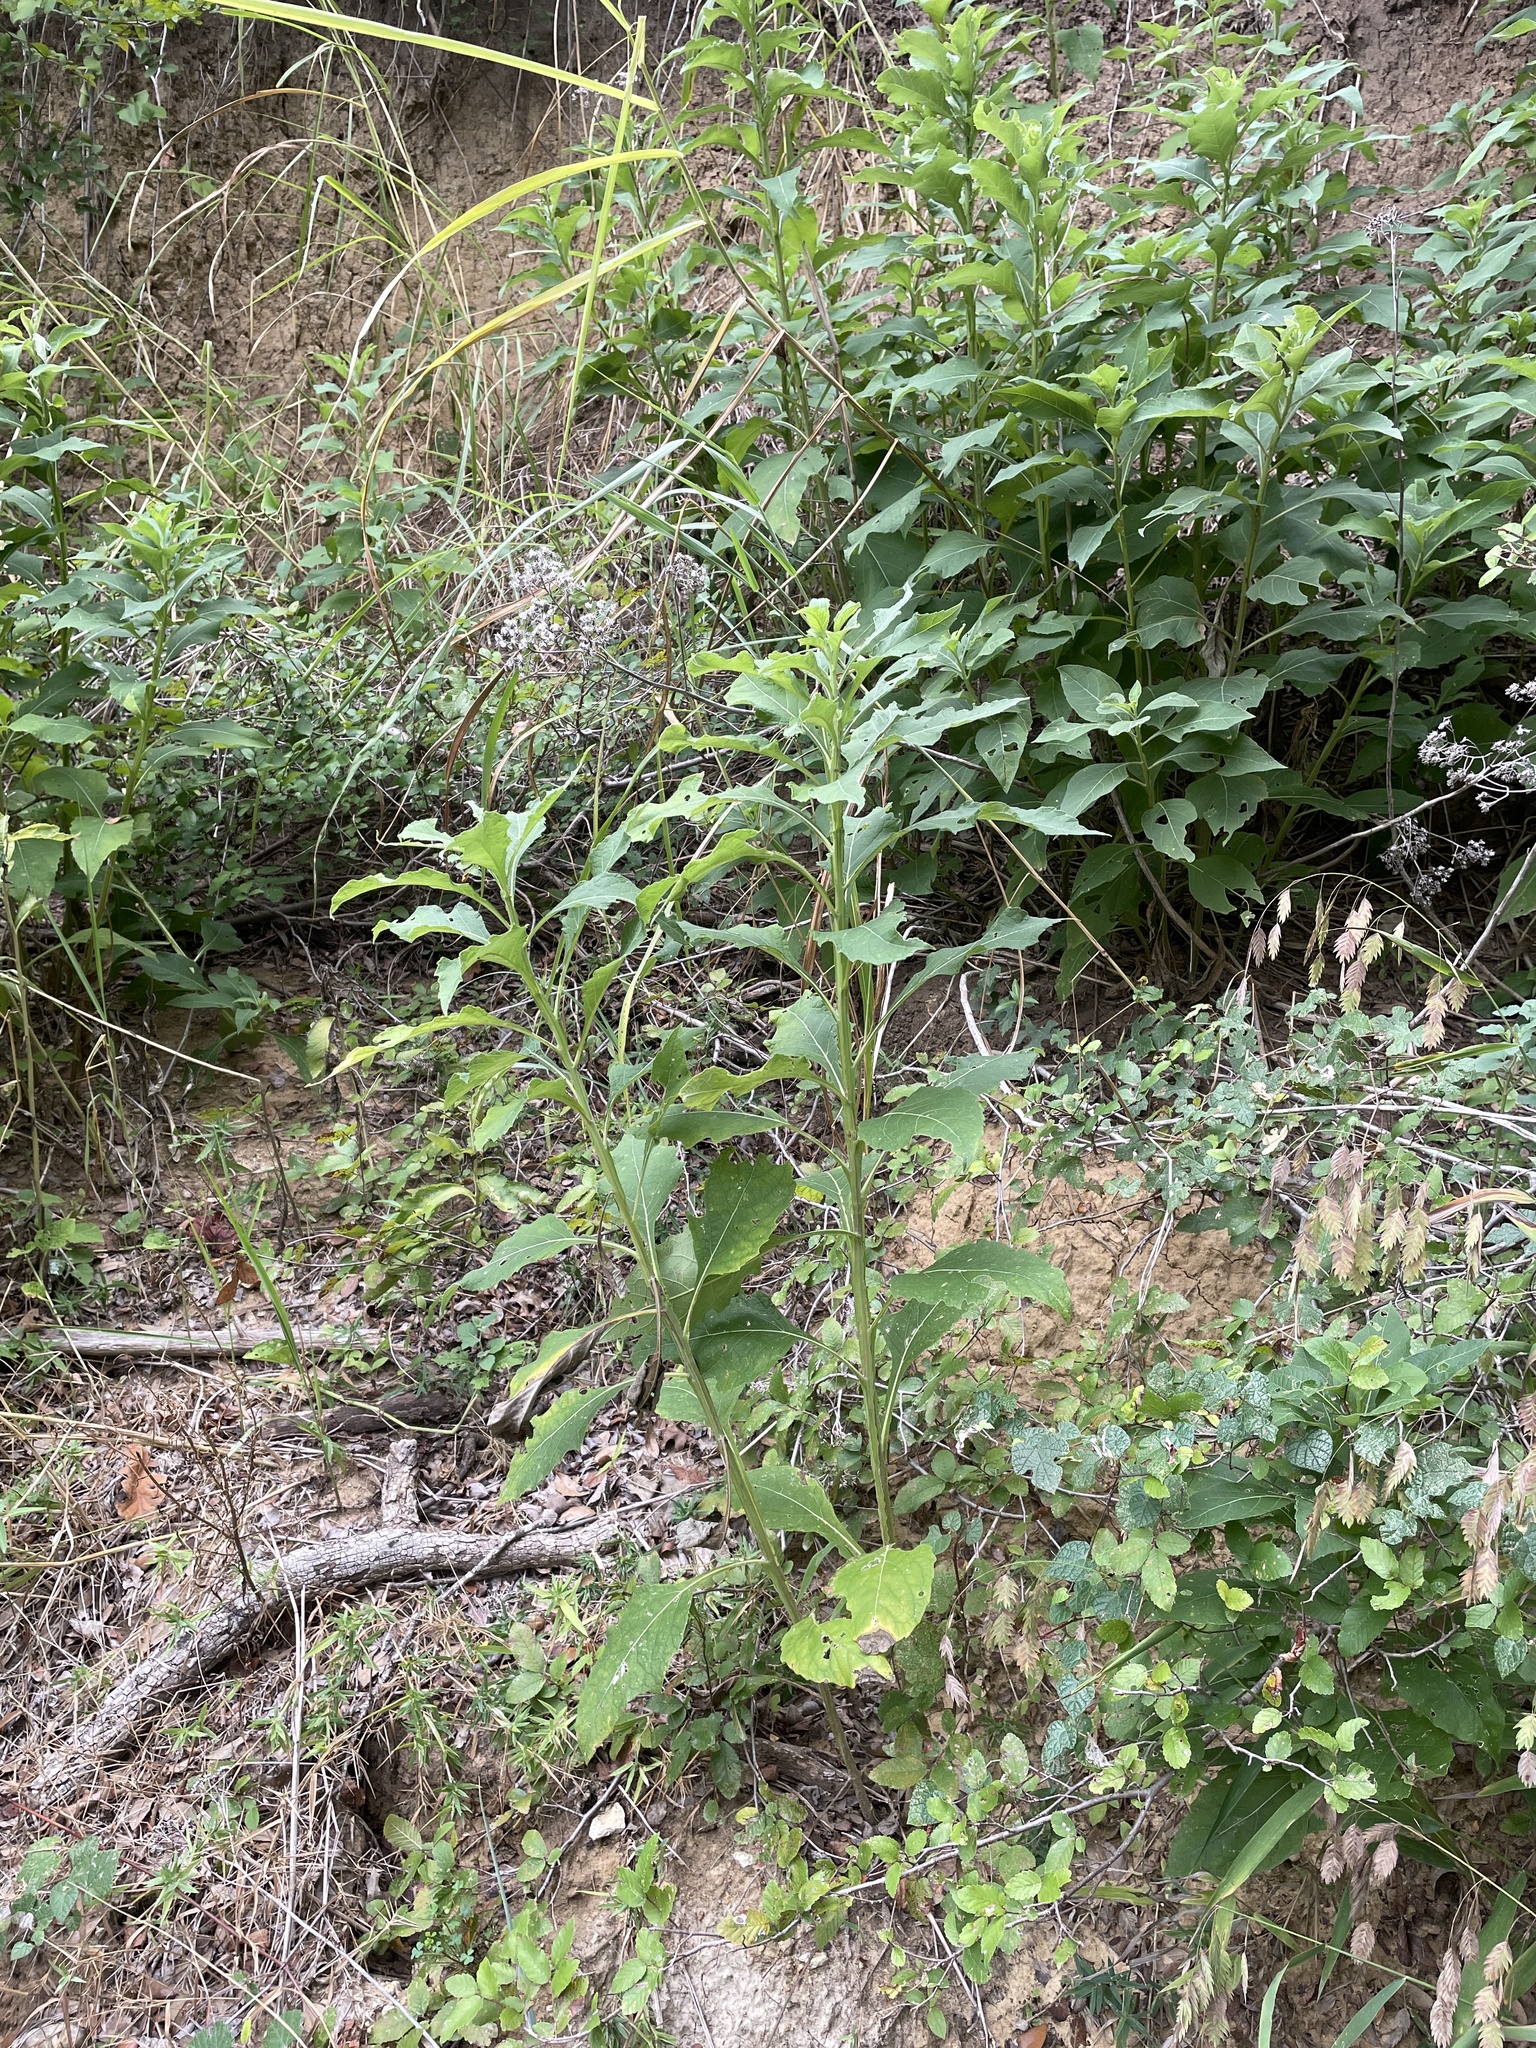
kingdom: Plantae
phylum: Tracheophyta
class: Magnoliopsida
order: Asterales
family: Asteraceae
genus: Verbesina
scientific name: Verbesina virginica
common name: Frostweed
